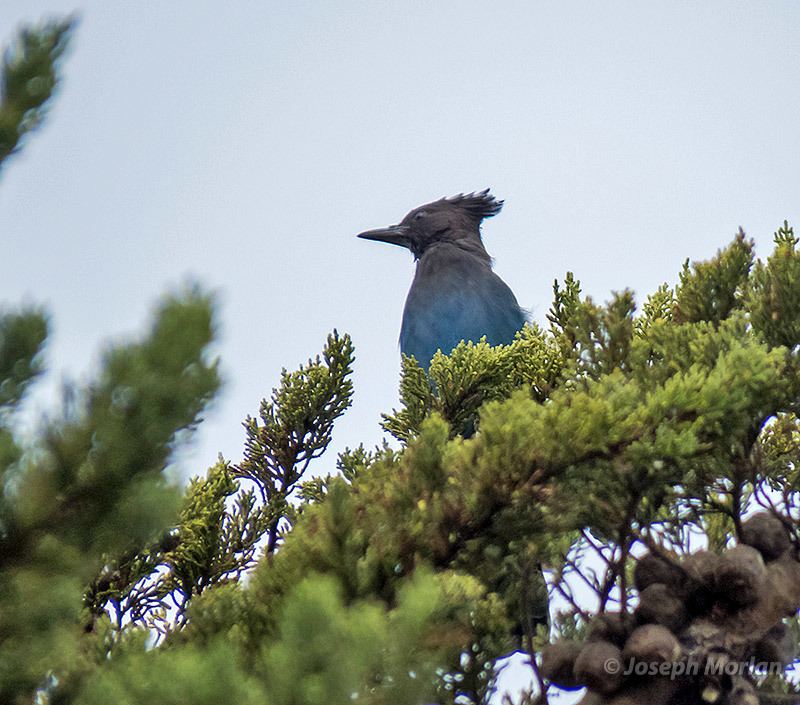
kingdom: Animalia
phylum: Chordata
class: Aves
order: Passeriformes
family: Corvidae
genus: Cyanocitta
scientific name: Cyanocitta stelleri
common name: Steller's jay
